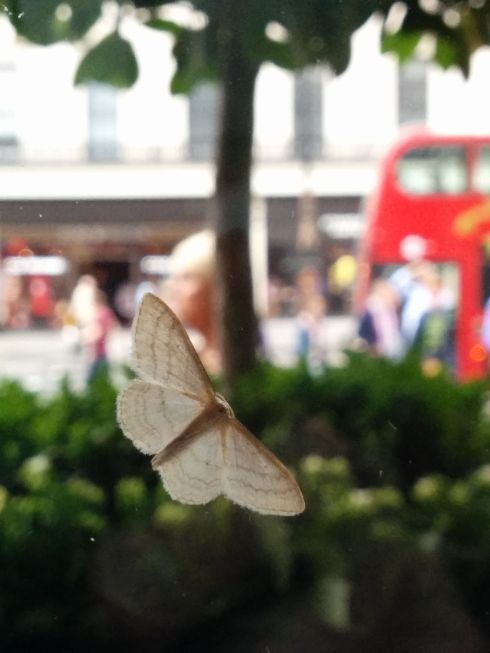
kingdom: Animalia
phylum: Arthropoda
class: Insecta
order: Lepidoptera
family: Geometridae
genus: Idaea
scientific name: Idaea subsericeata
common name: Satin wave
